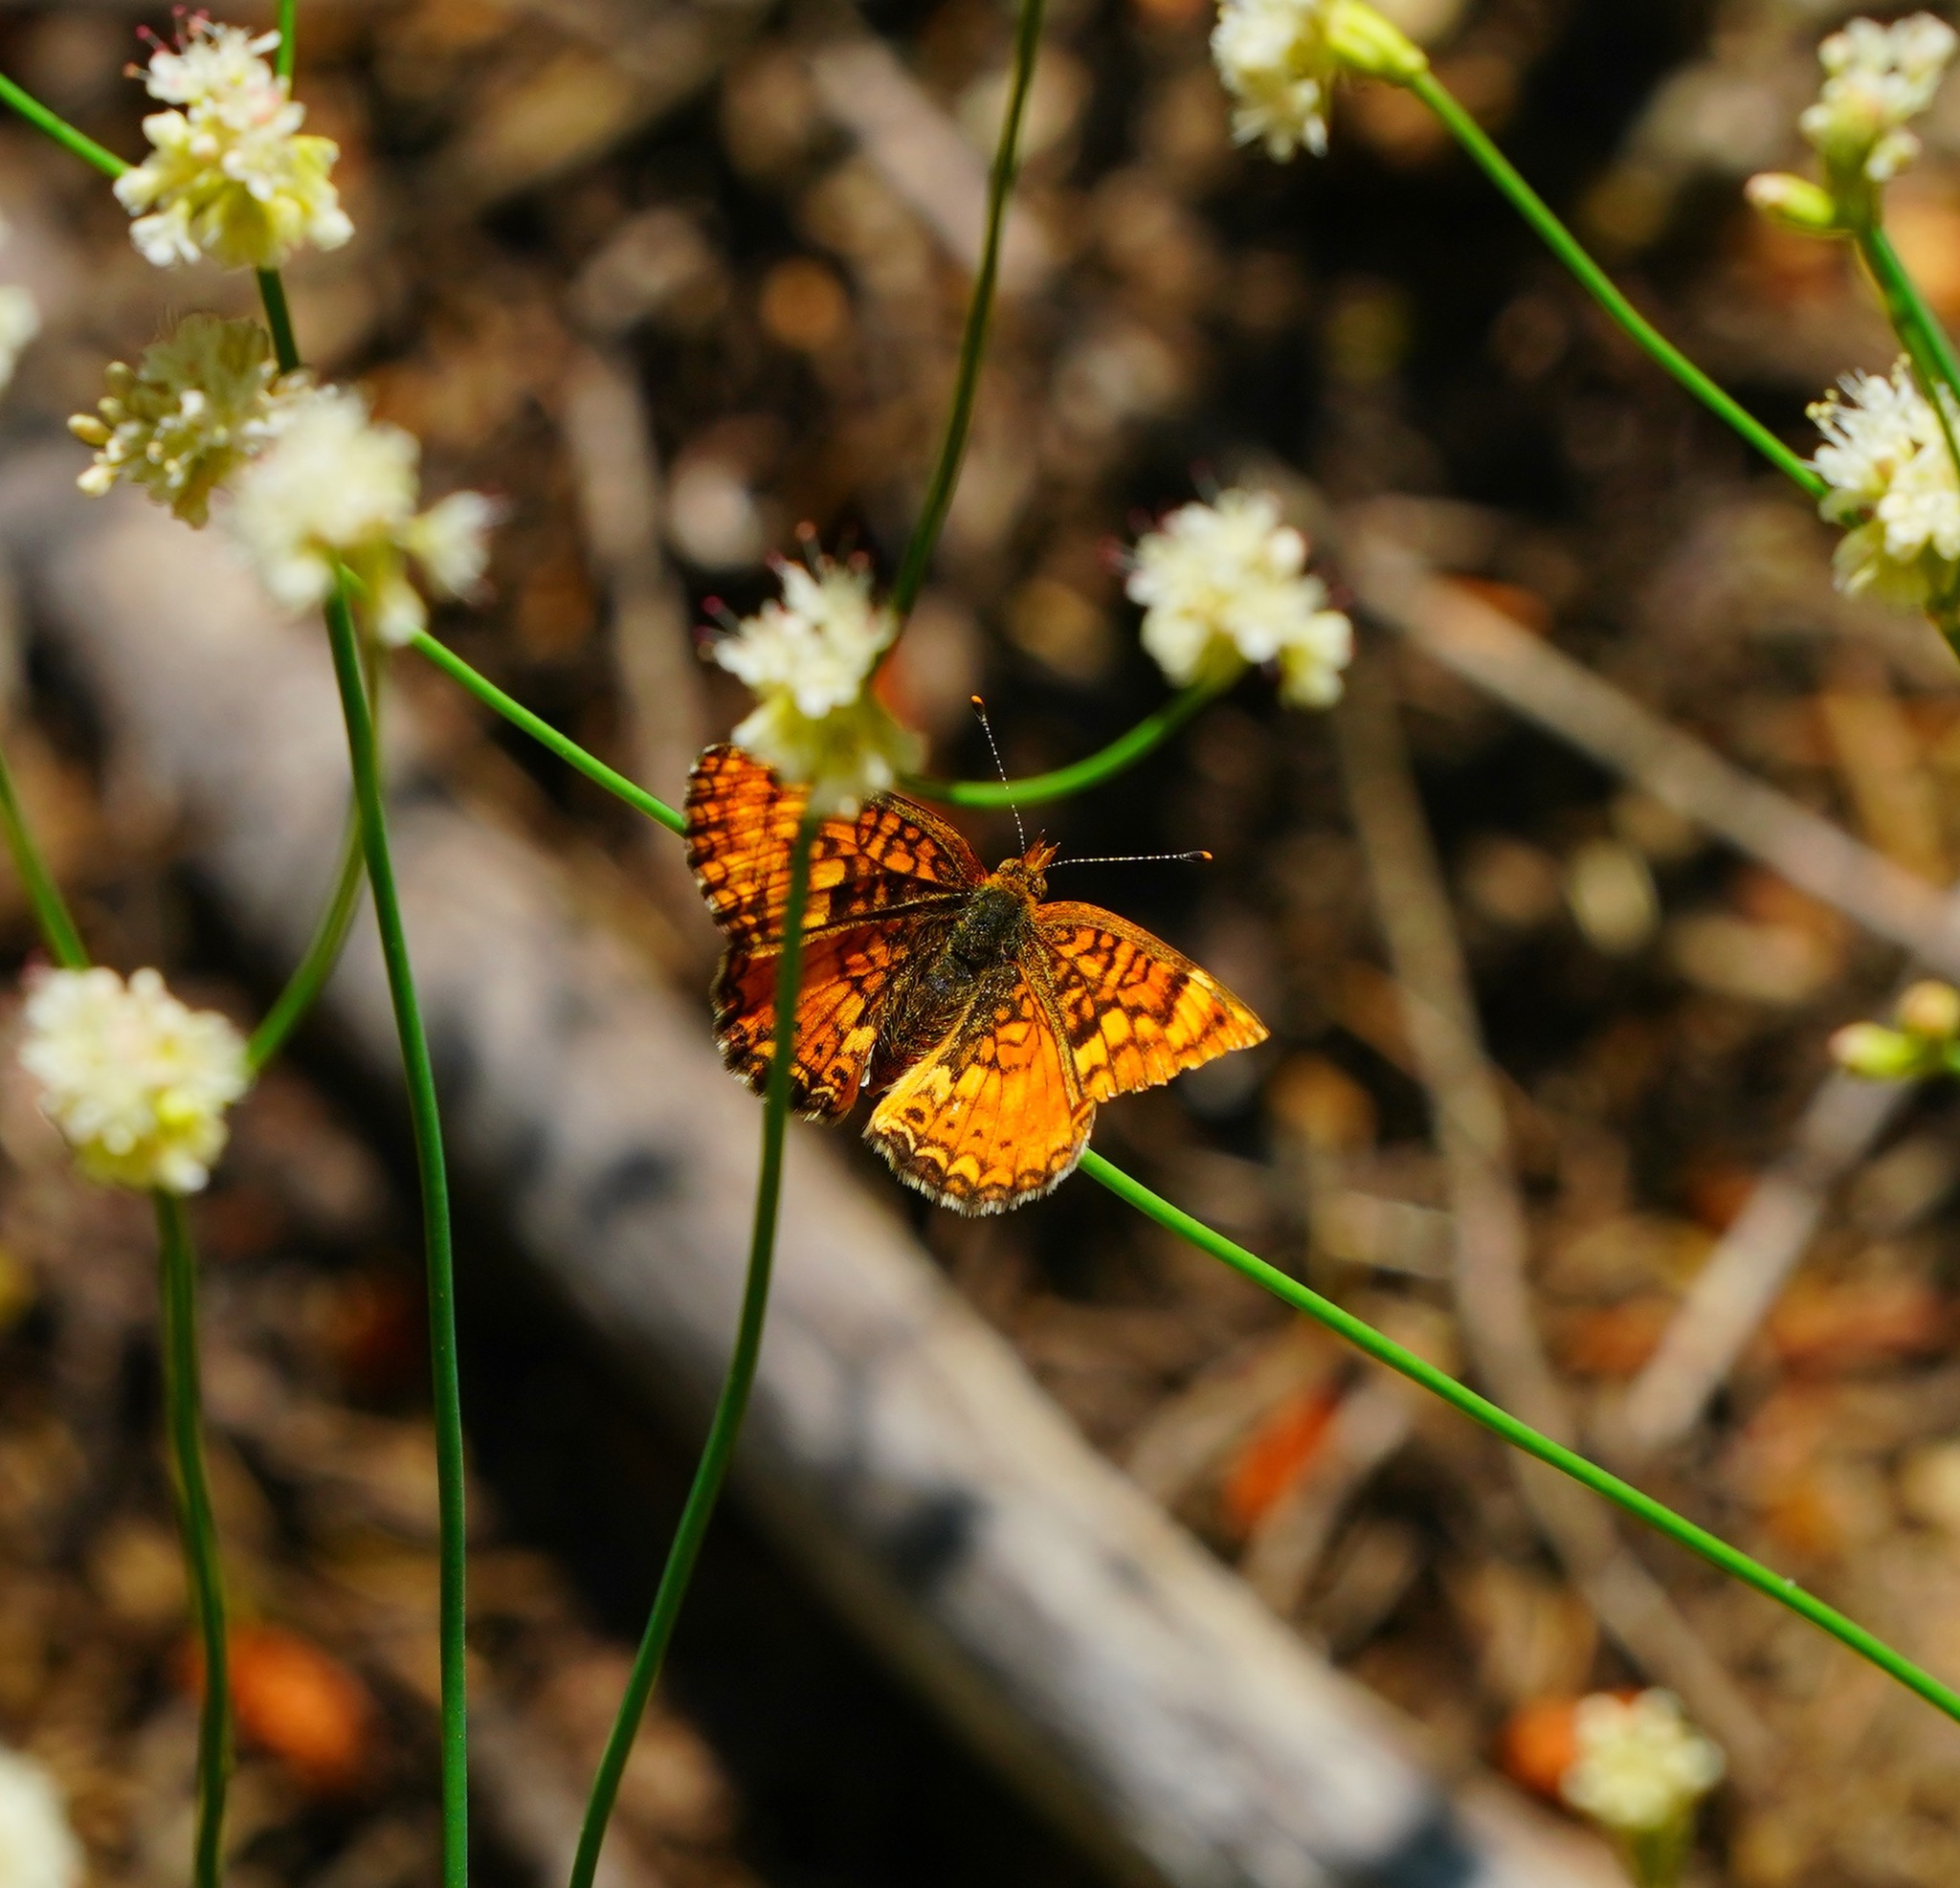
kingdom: Animalia
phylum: Arthropoda
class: Insecta
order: Lepidoptera
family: Nymphalidae
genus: Phyciodes
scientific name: Phyciodes orseis
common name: California crescent
